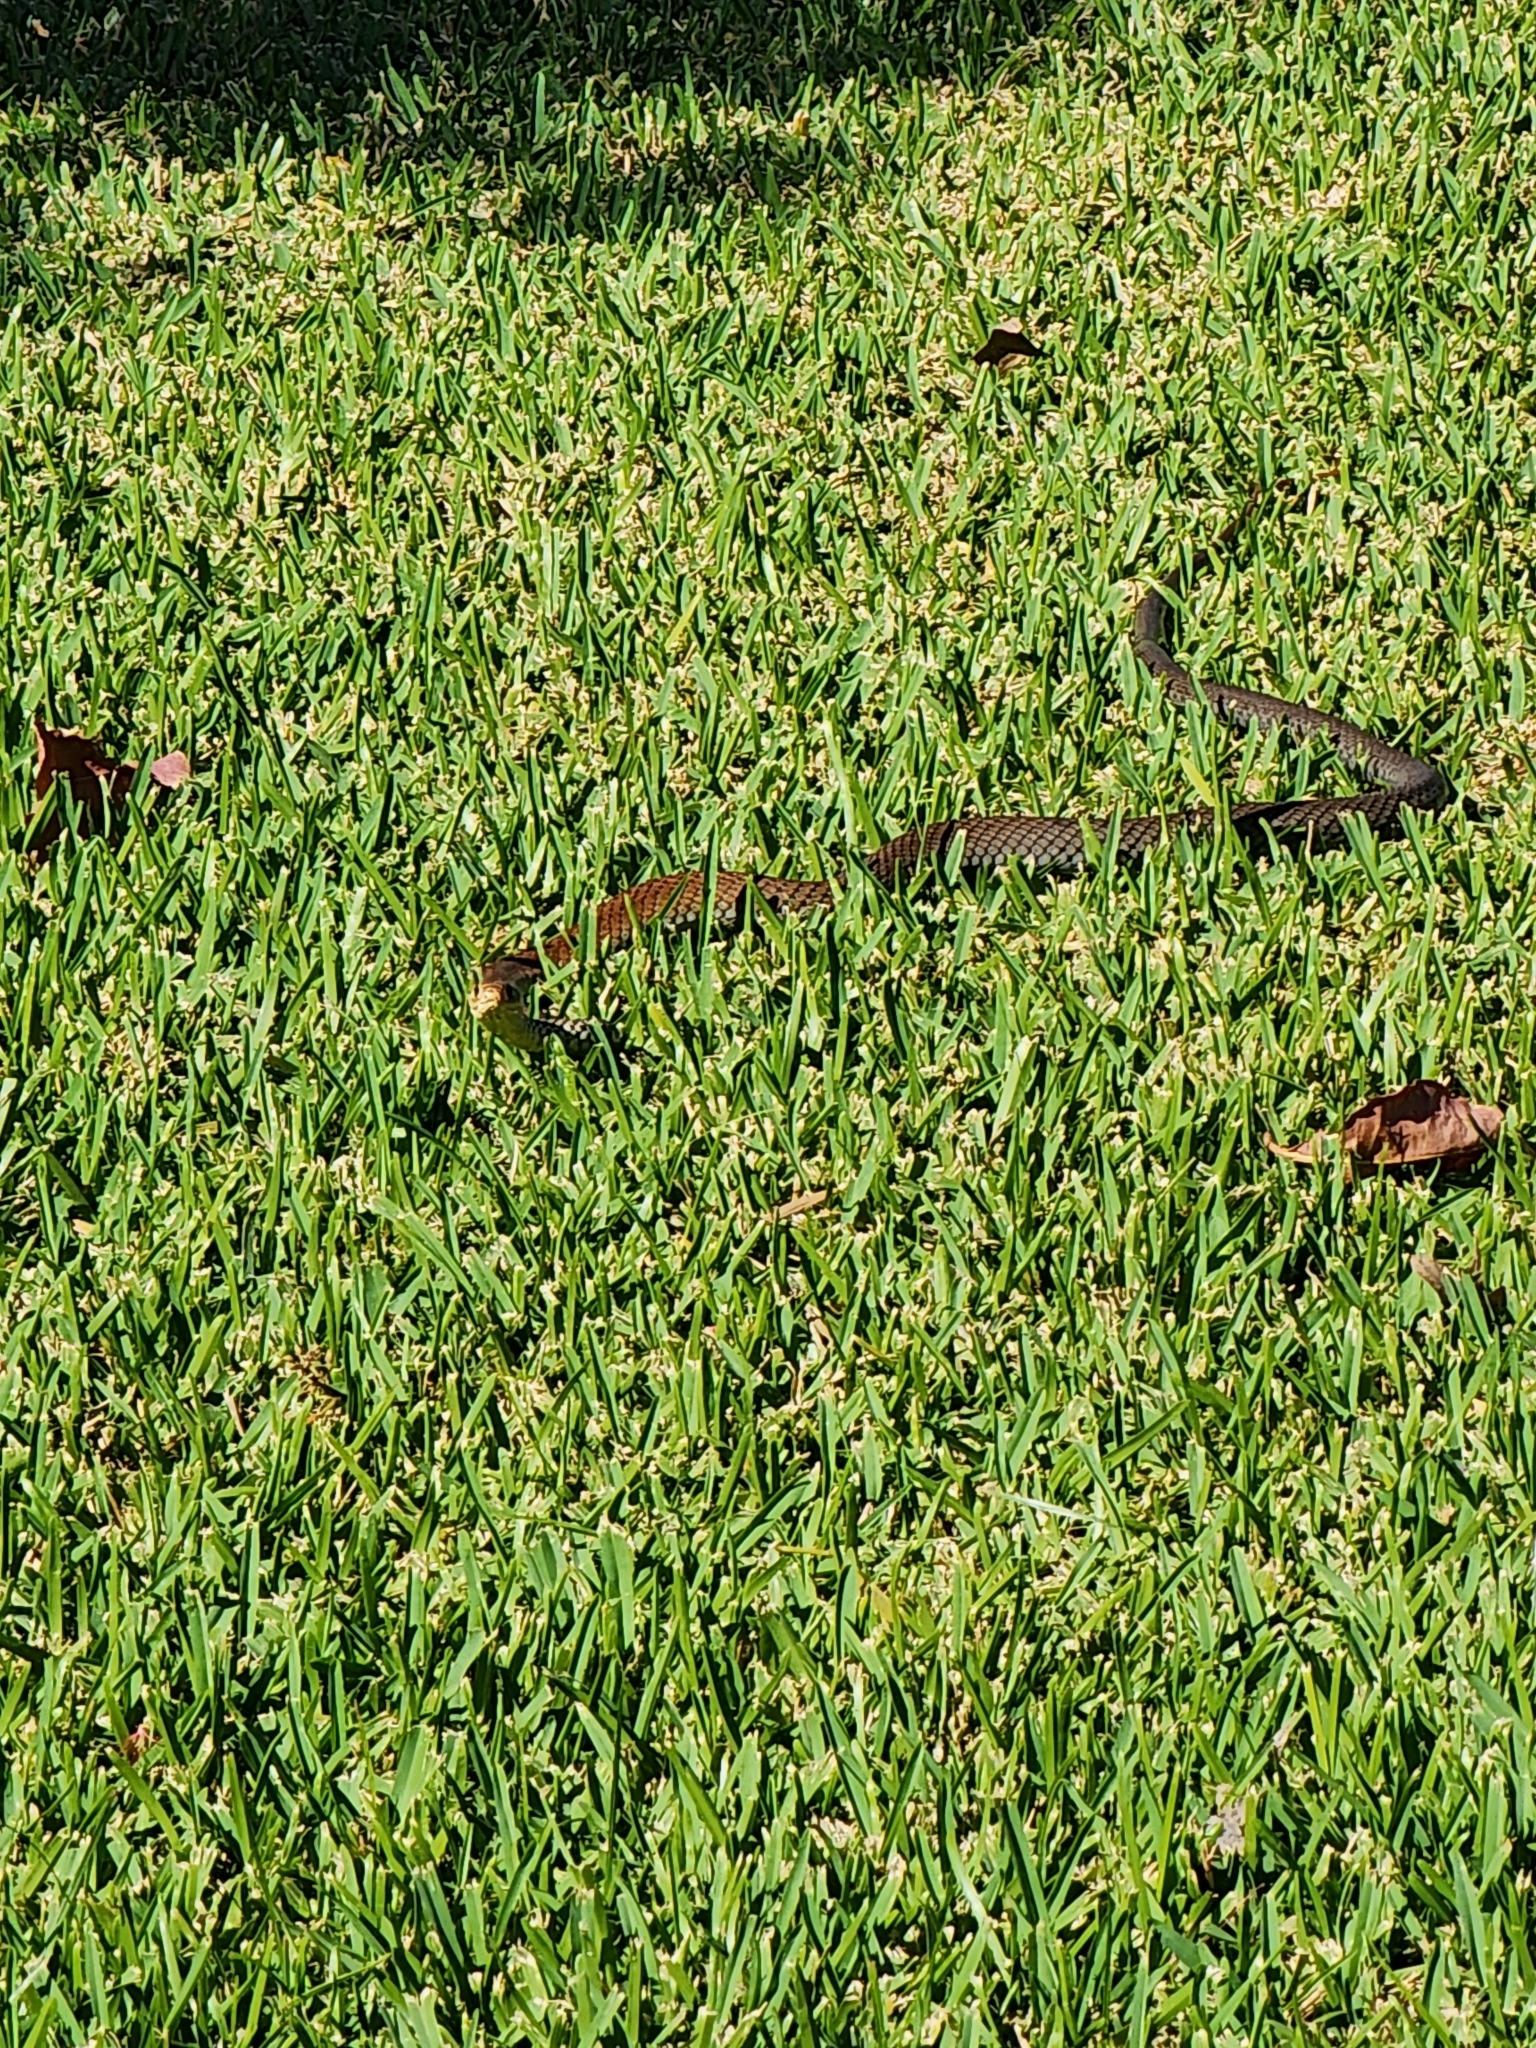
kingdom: Animalia
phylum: Chordata
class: Squamata
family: Elapidae
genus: Demansia
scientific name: Demansia vestigiata
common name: Black whip snake
